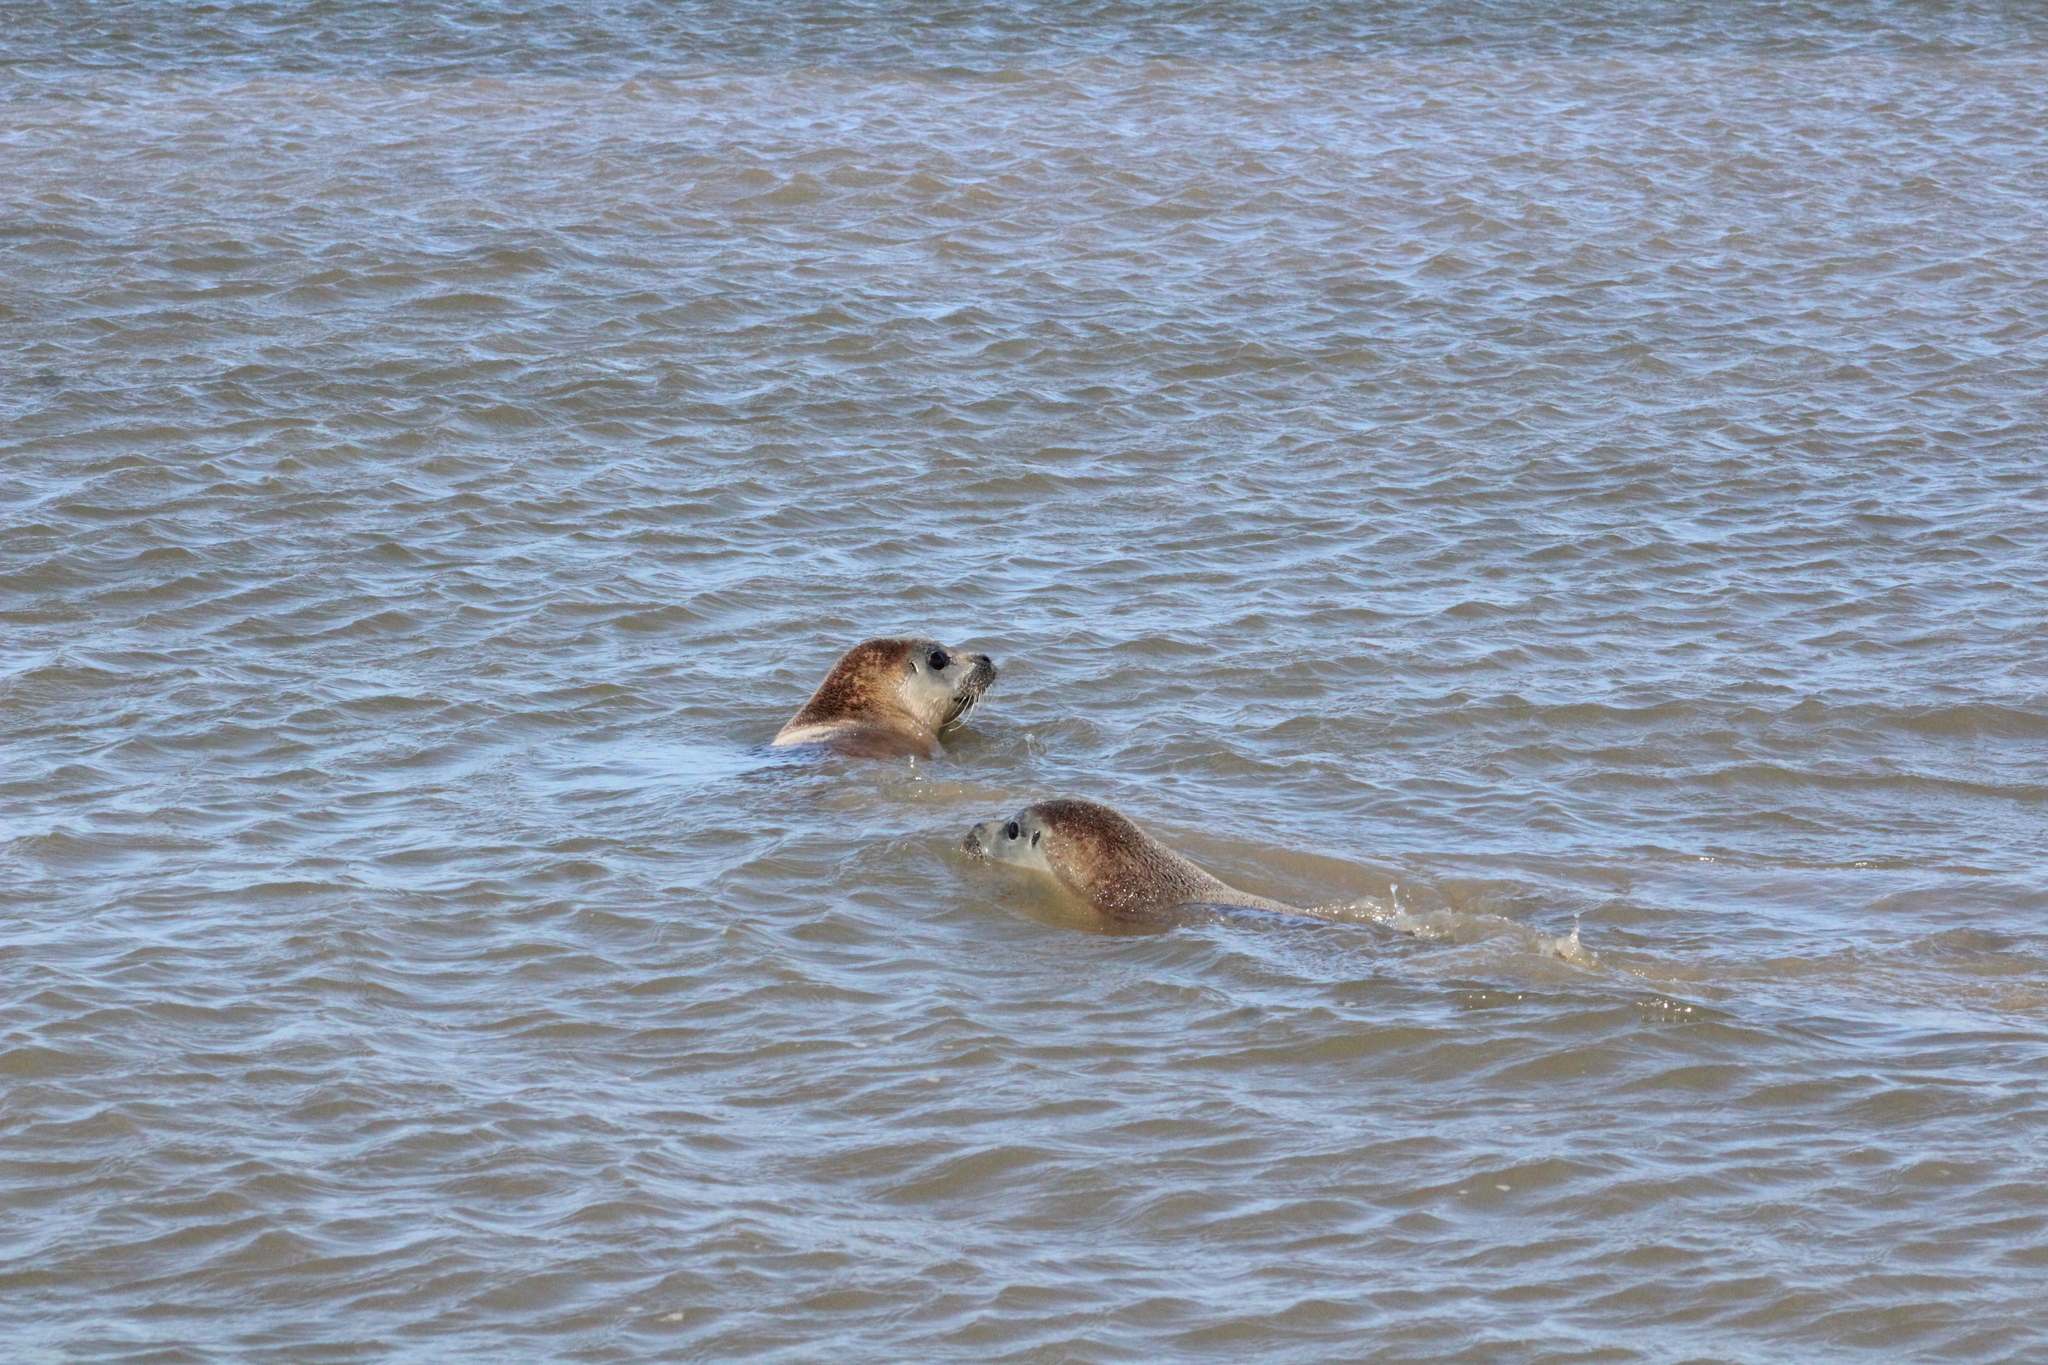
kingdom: Animalia
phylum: Chordata
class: Mammalia
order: Carnivora
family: Phocidae
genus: Phoca
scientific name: Phoca vitulina
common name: Harbor seal
